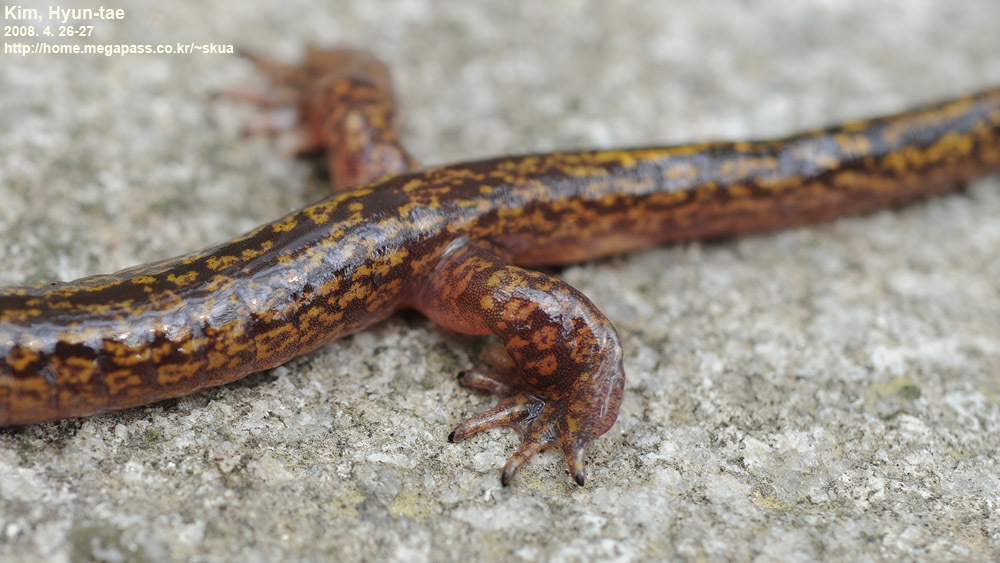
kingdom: Animalia
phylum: Chordata
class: Amphibia
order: Caudata
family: Hynobiidae
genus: Onychodactylus
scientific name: Onychodactylus koreanus
